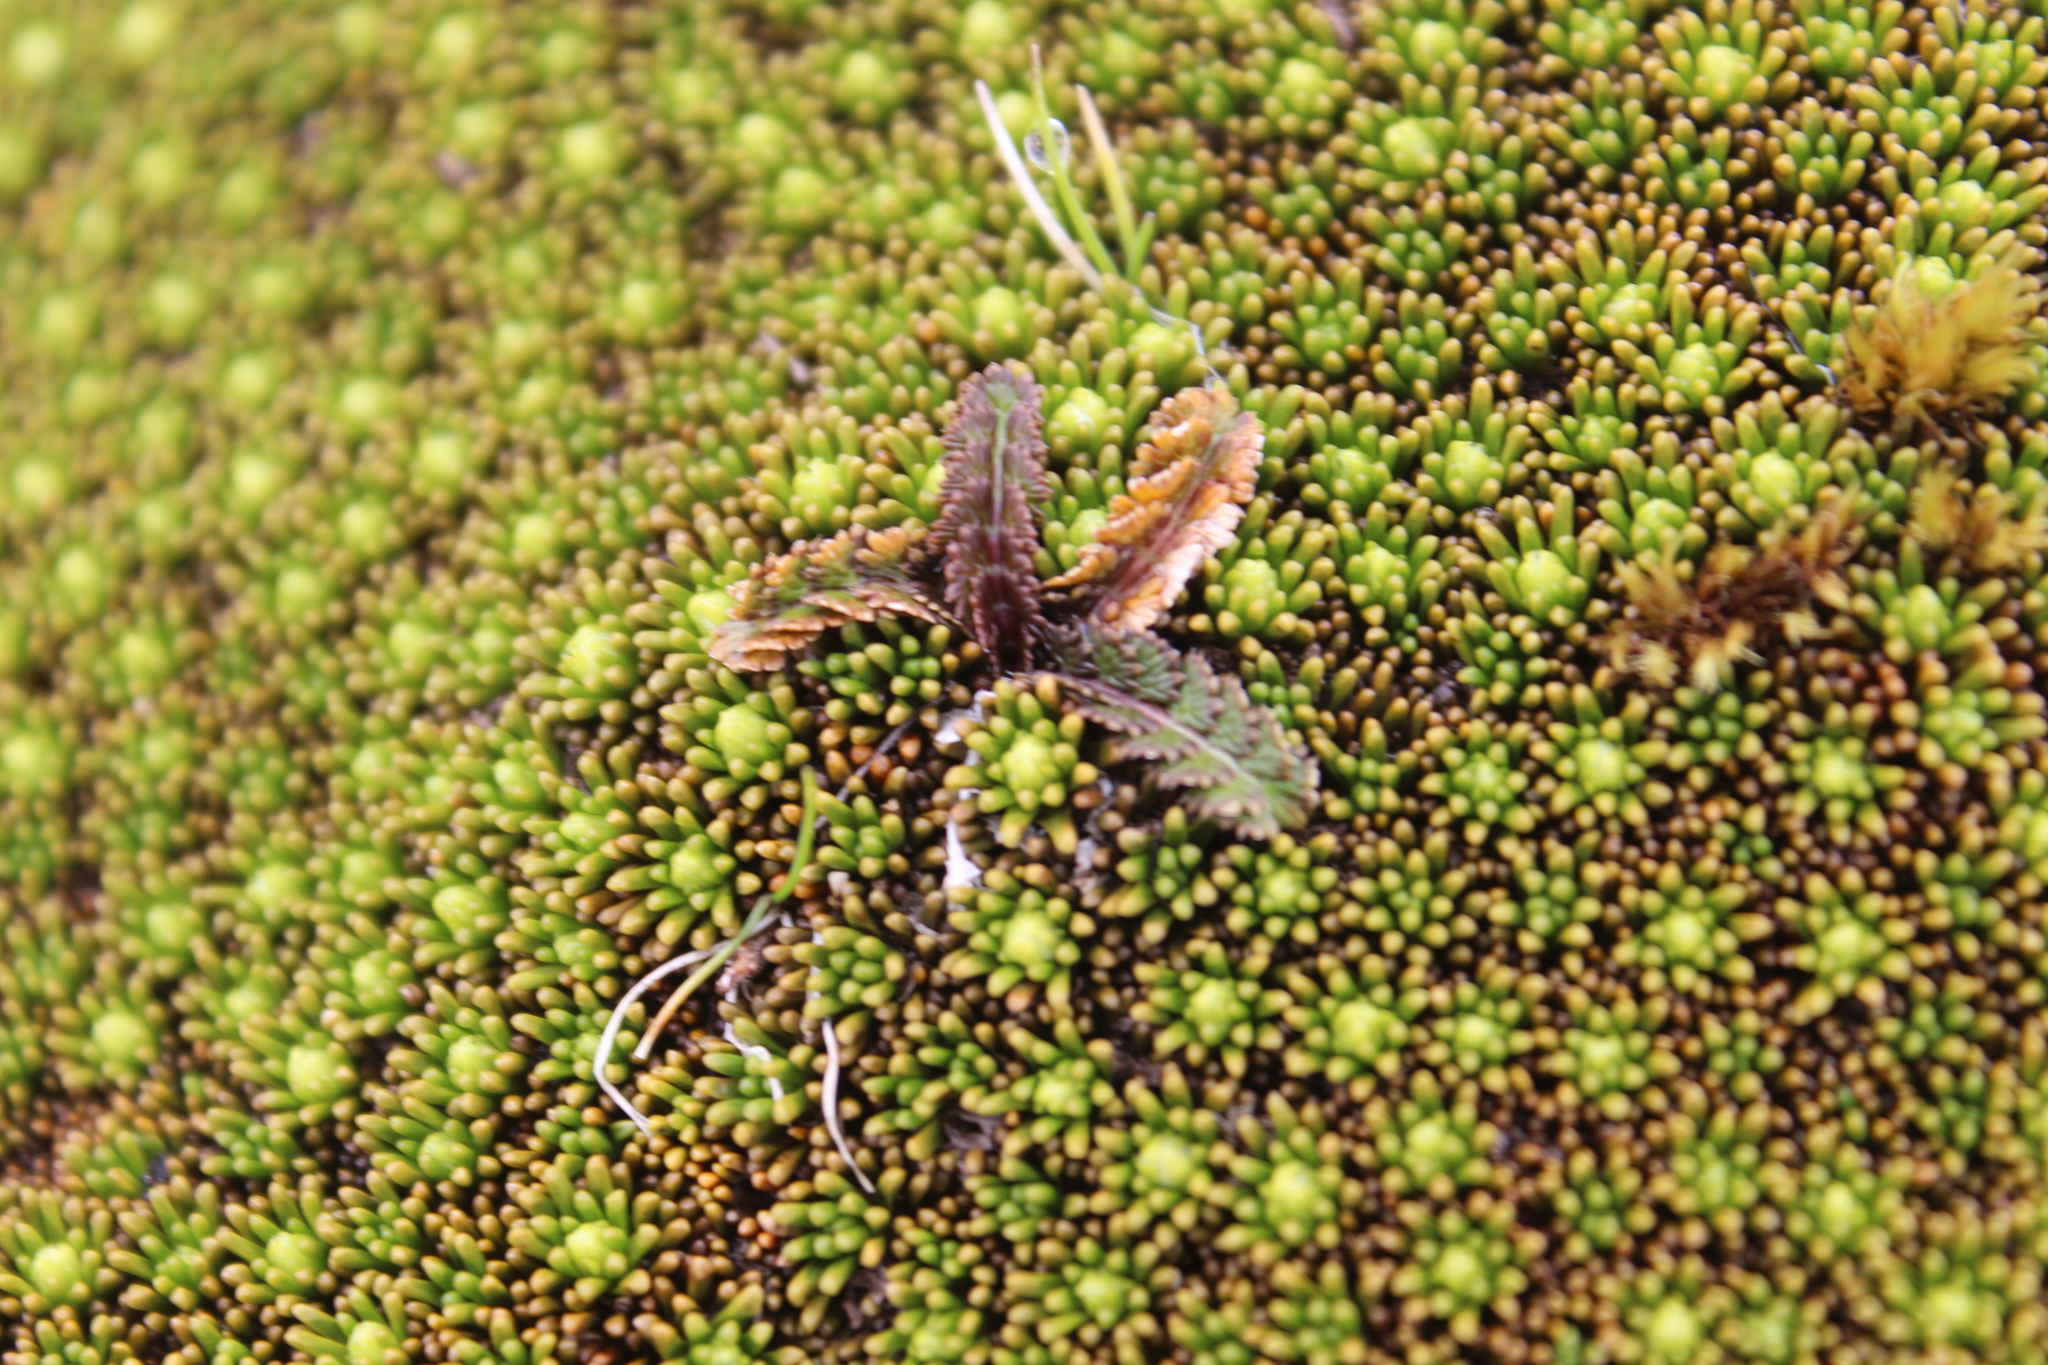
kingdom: Plantae
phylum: Tracheophyta
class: Magnoliopsida
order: Asterales
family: Stylidiaceae
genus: Phyllachne
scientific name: Phyllachne colensoi
